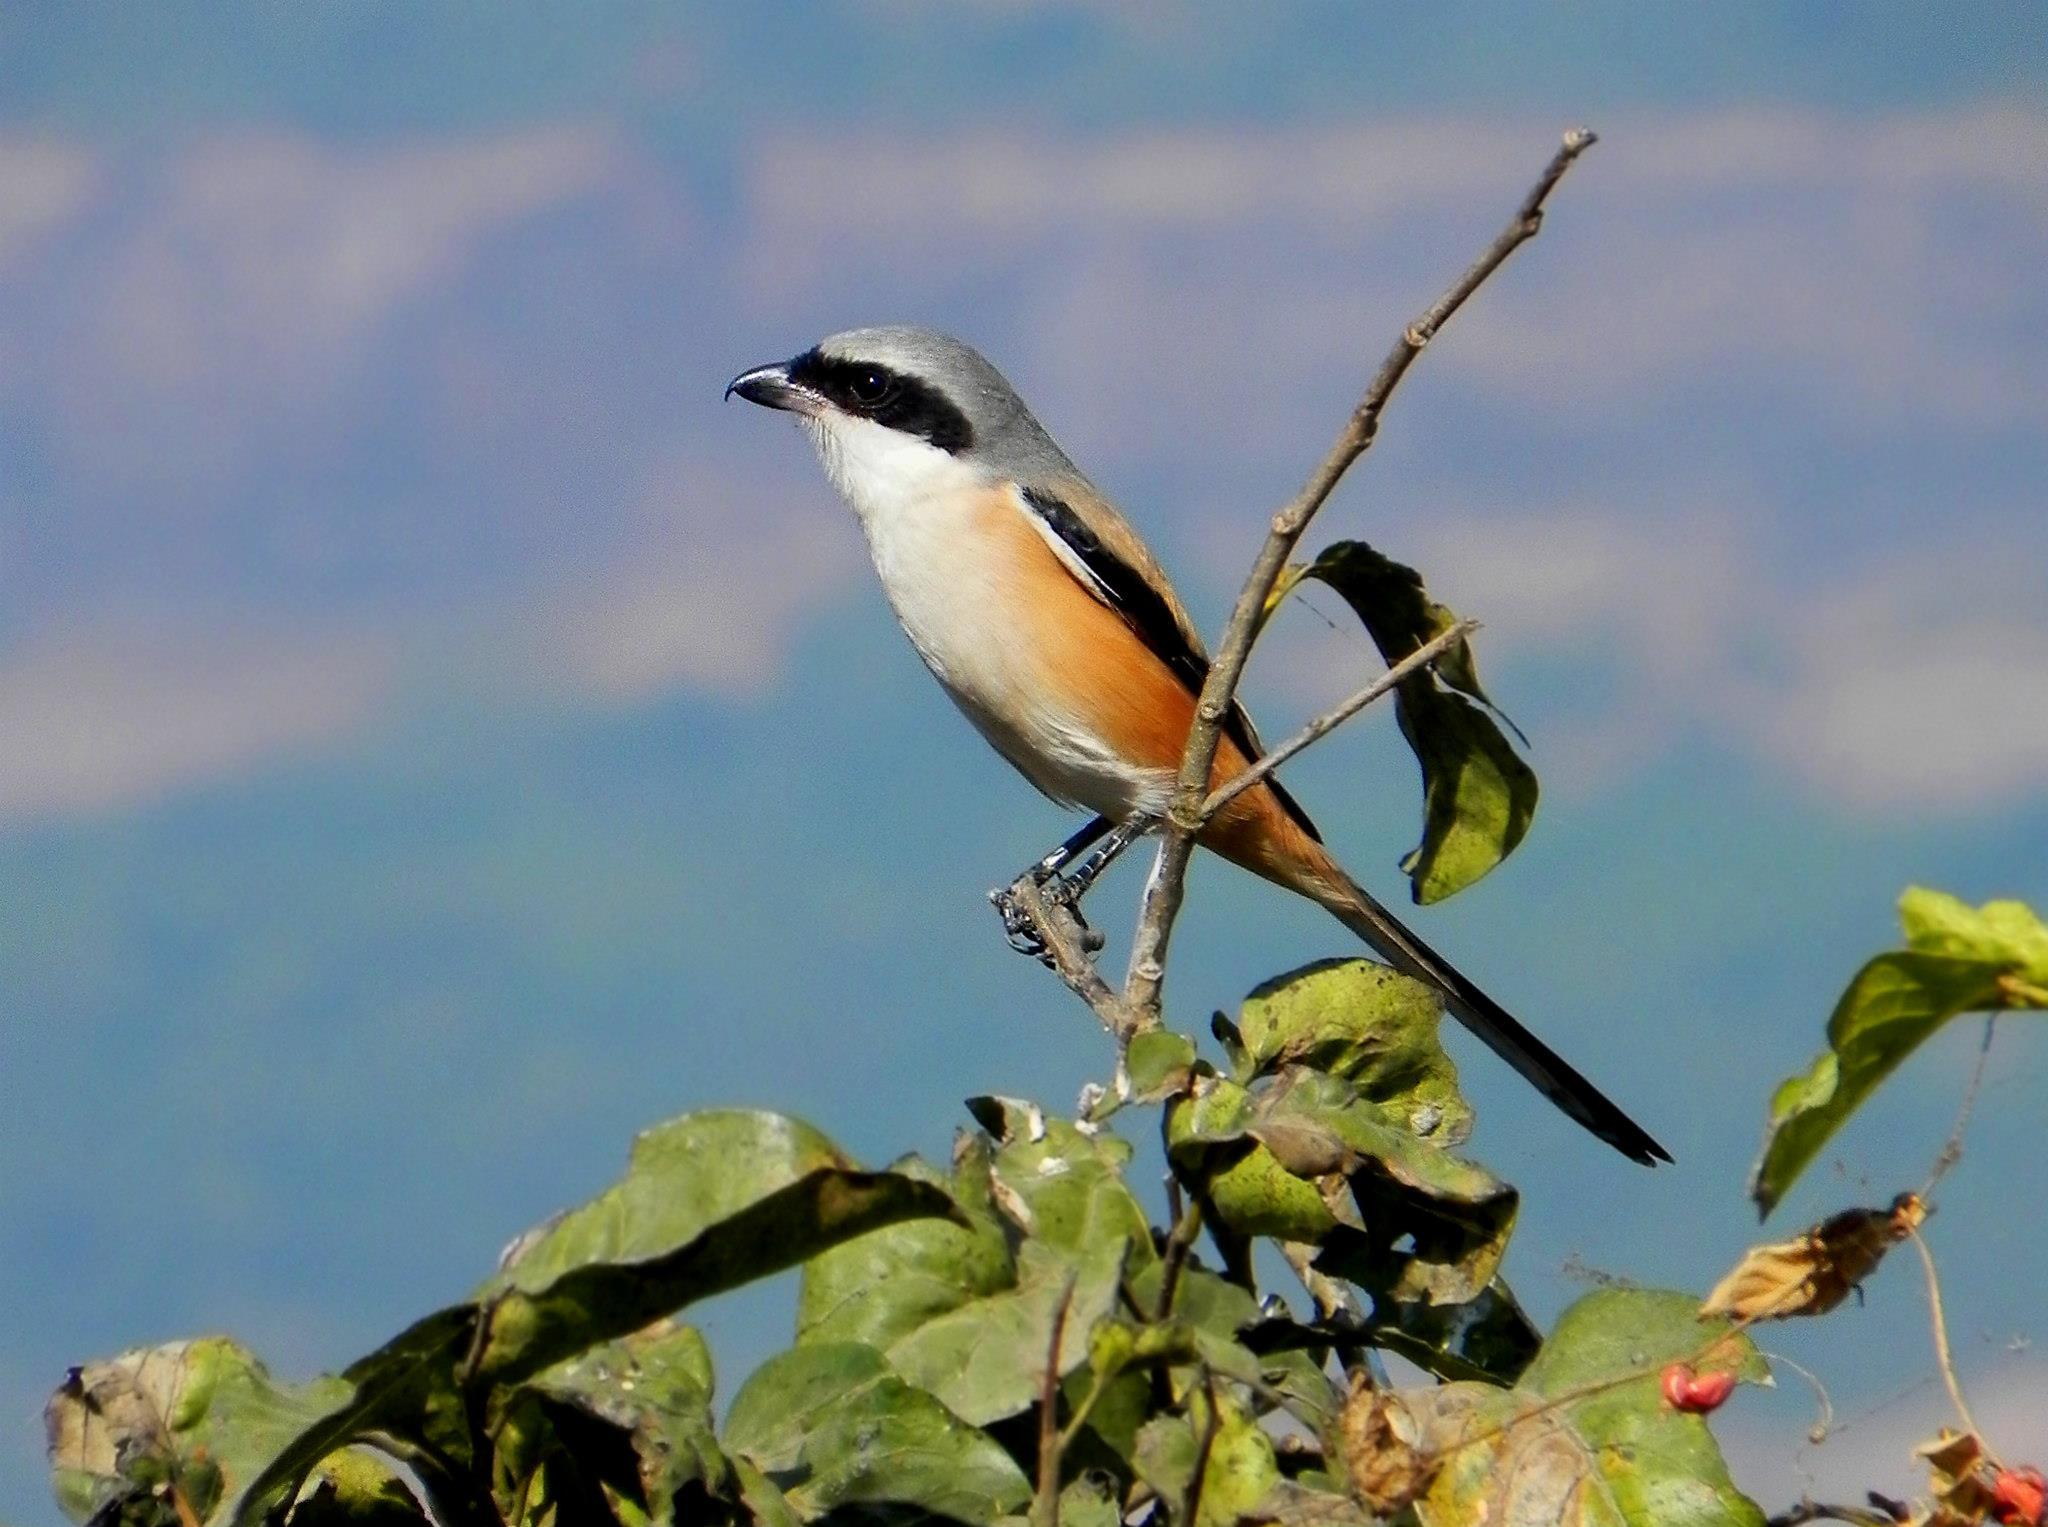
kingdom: Animalia
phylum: Chordata
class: Aves
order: Passeriformes
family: Laniidae
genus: Lanius
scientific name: Lanius schach
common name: Long-tailed shrike
